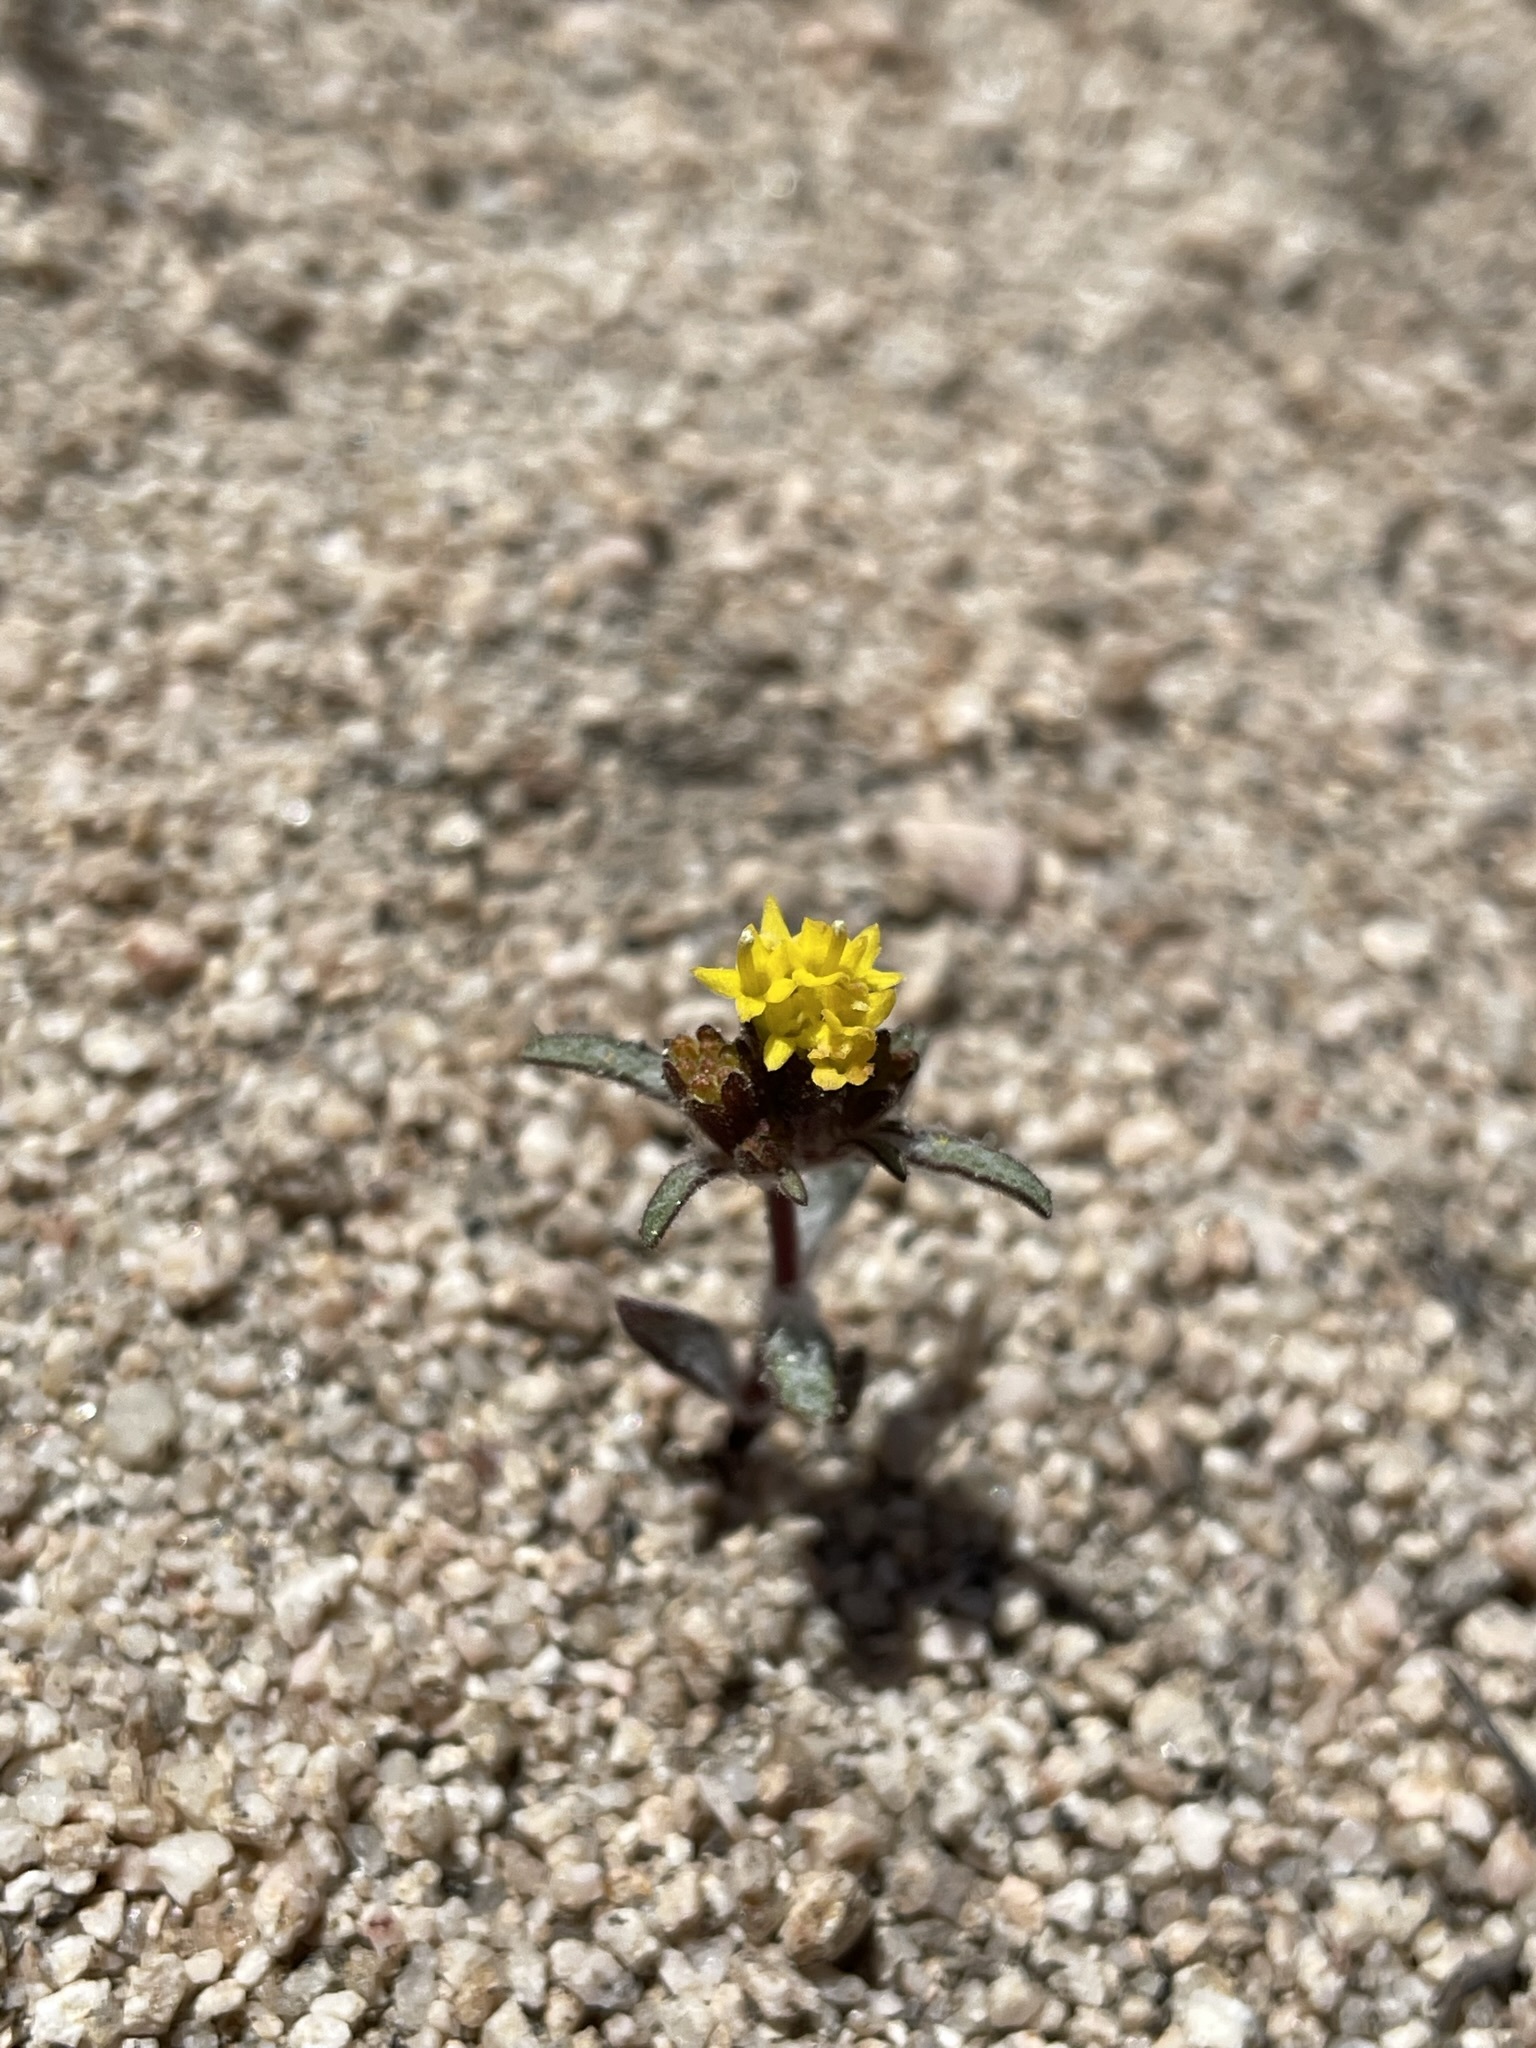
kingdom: Plantae
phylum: Tracheophyta
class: Magnoliopsida
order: Asterales
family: Asteraceae
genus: Orochaenactis
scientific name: Orochaenactis thysanocarpha
